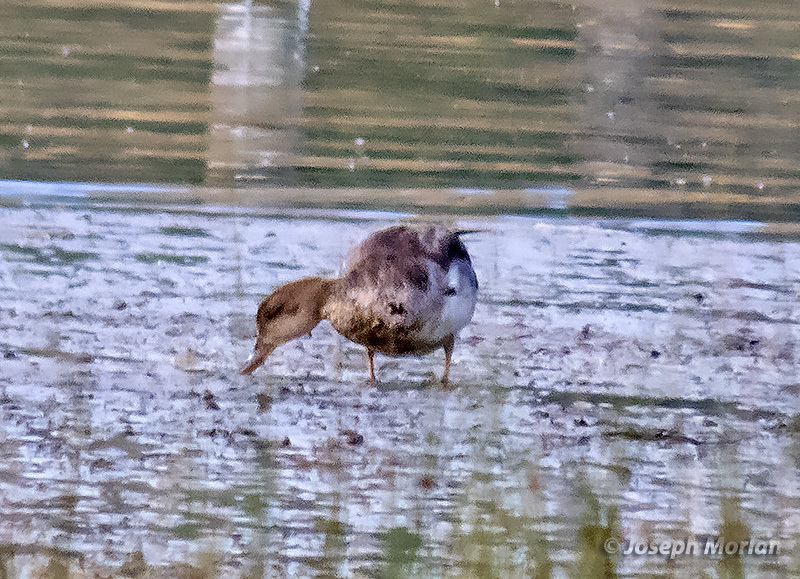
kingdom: Animalia
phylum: Chordata
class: Aves
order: Anseriformes
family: Anatidae
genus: Mareca
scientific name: Mareca strepera
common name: Gadwall
